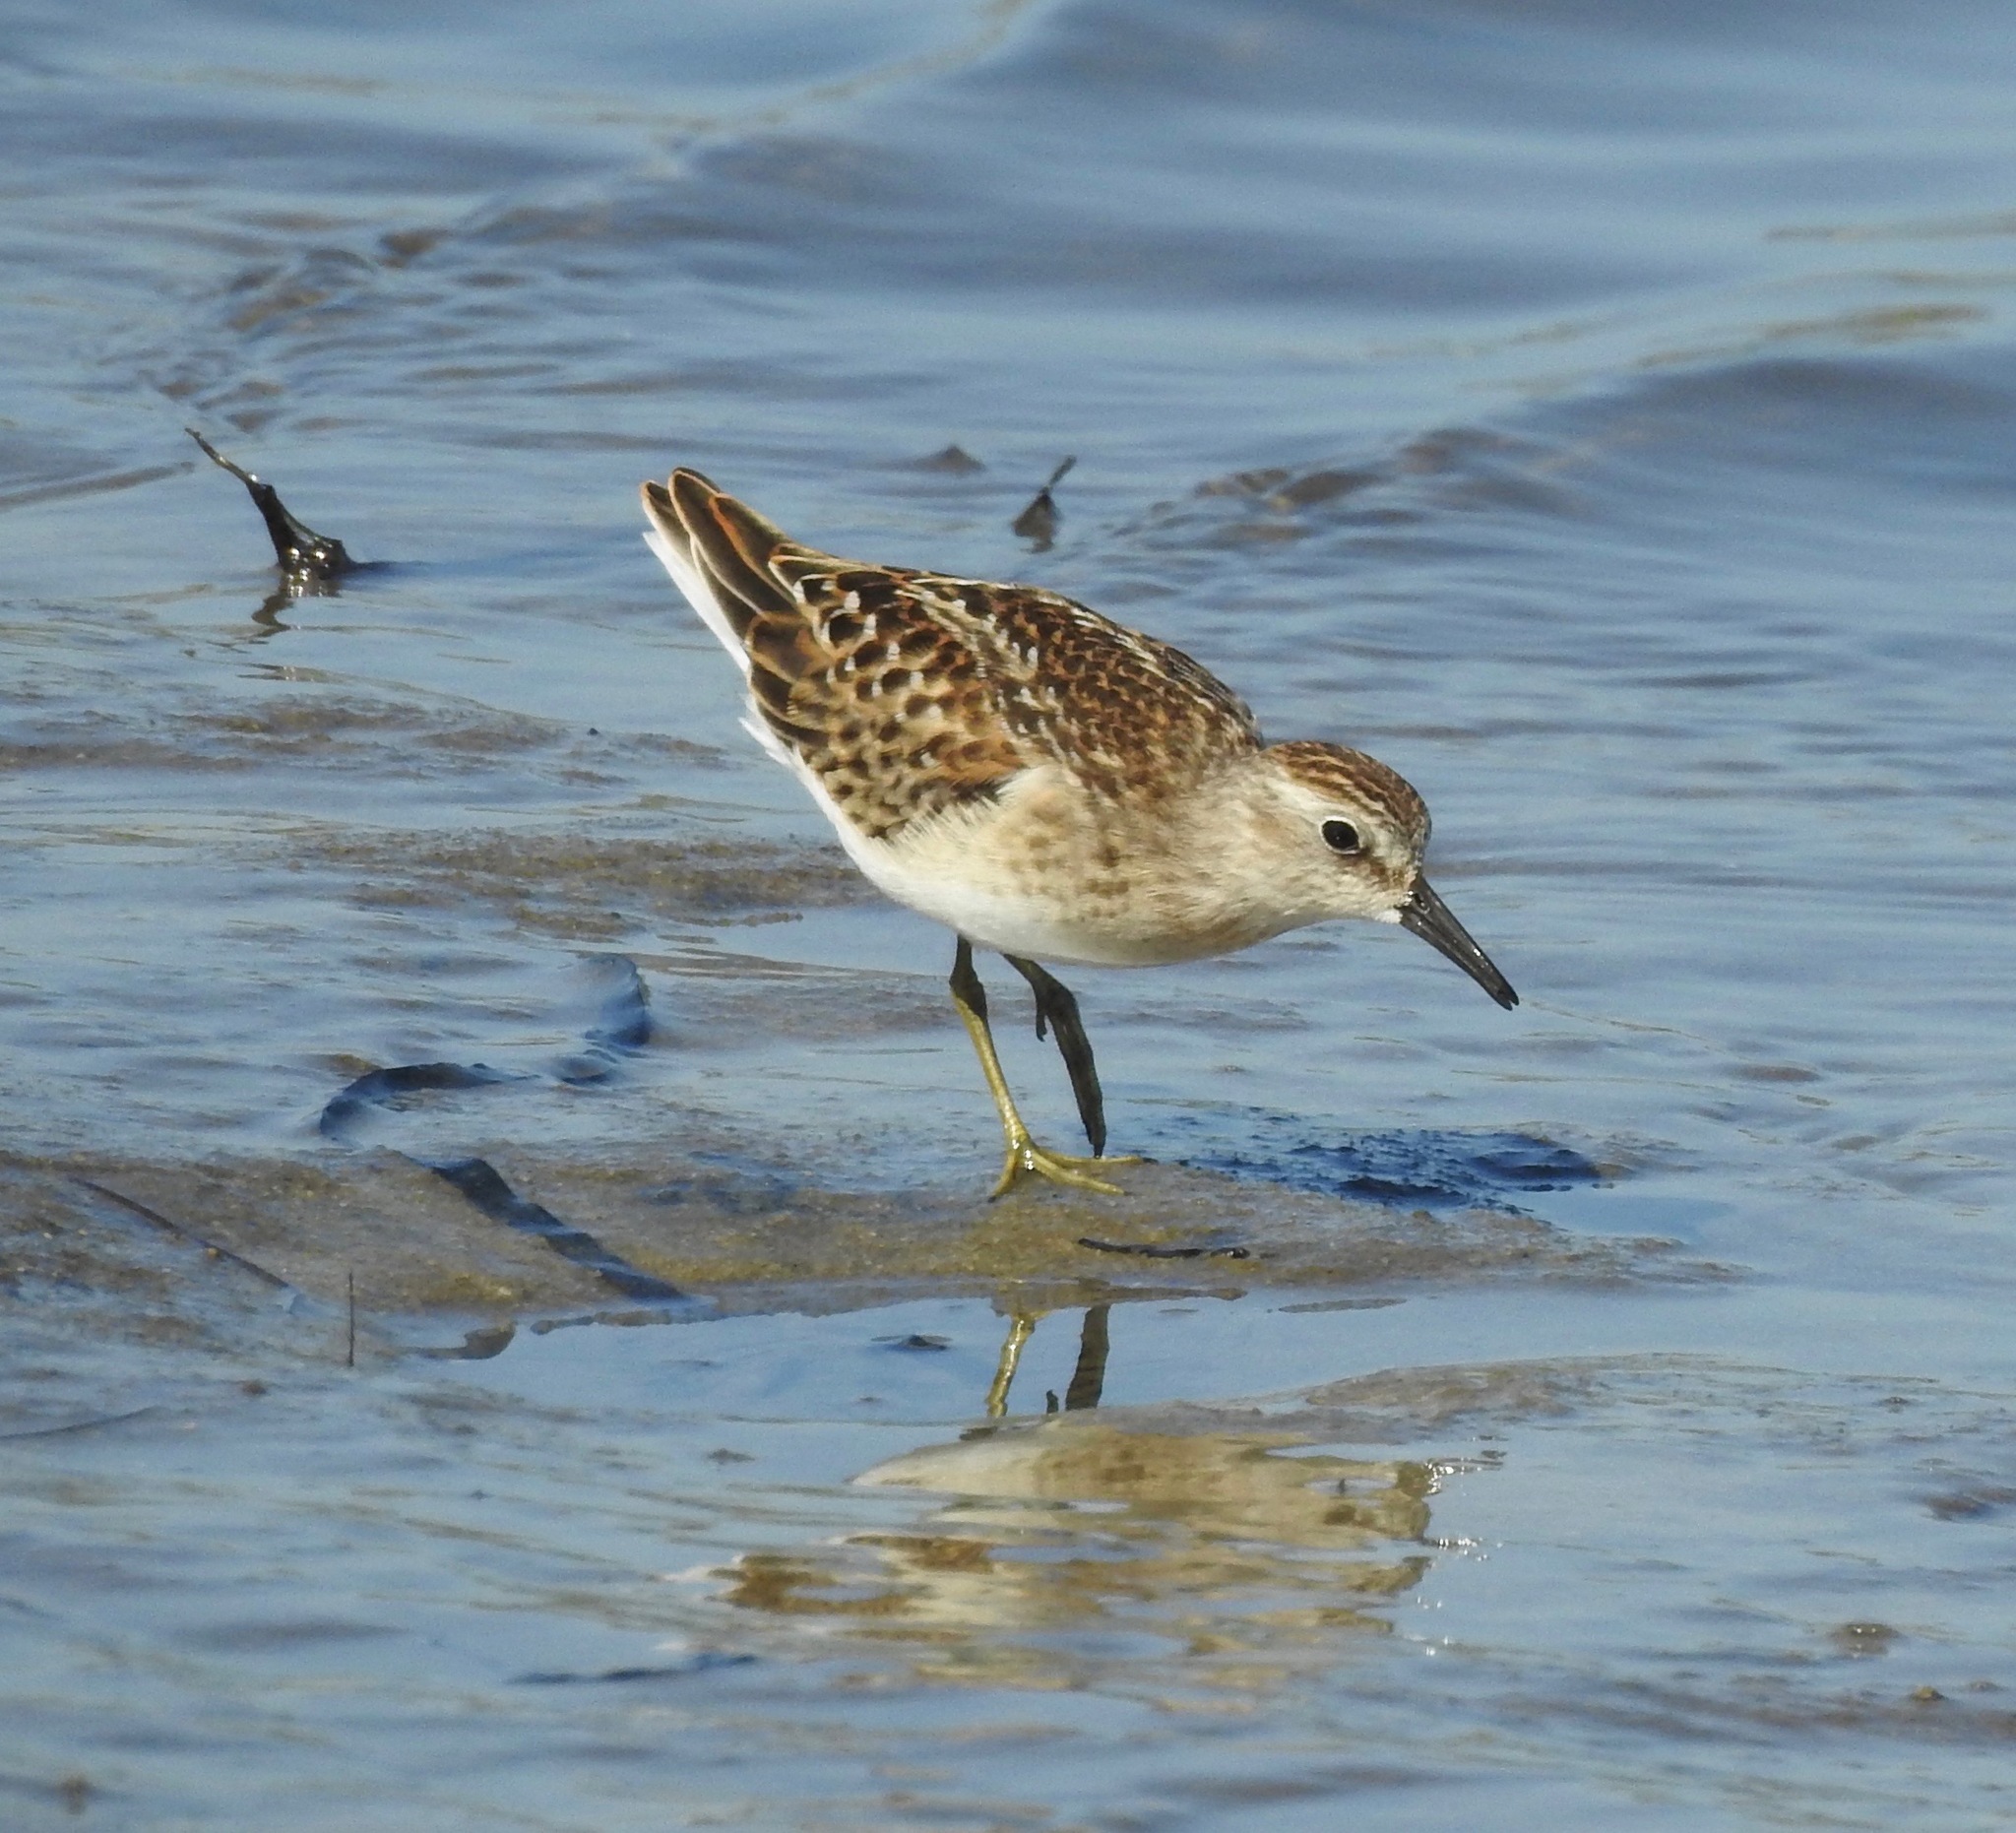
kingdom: Animalia
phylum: Chordata
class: Aves
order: Charadriiformes
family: Scolopacidae
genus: Calidris
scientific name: Calidris minutilla
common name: Least sandpiper
